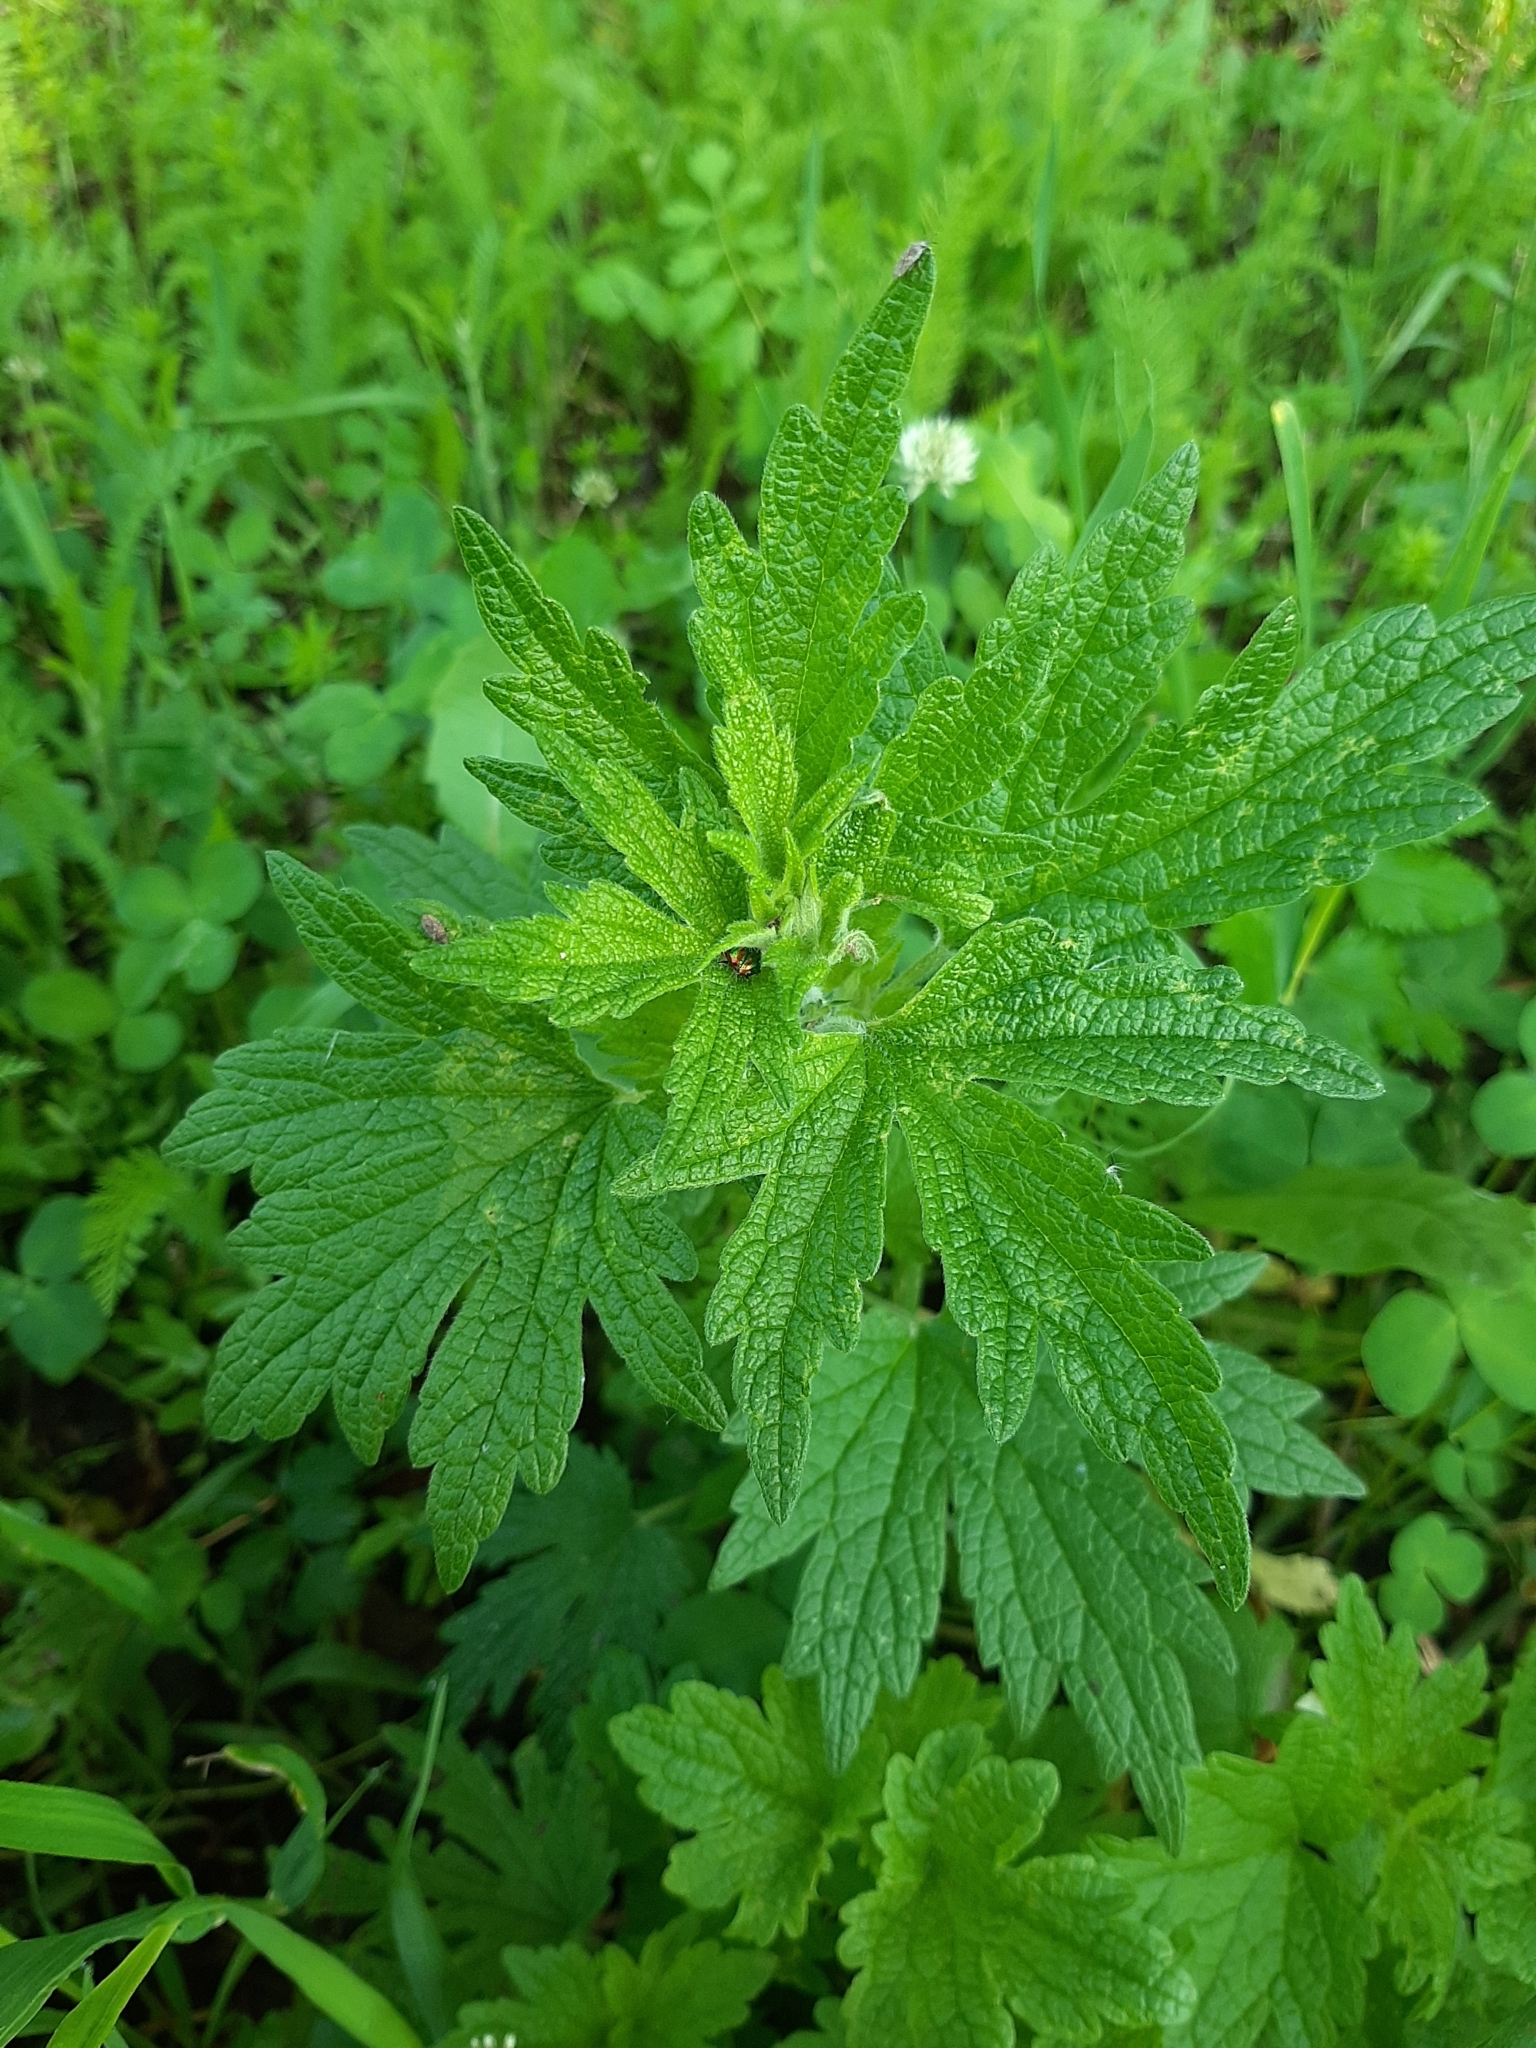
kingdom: Plantae
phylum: Tracheophyta
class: Magnoliopsida
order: Lamiales
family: Lamiaceae
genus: Leonurus
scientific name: Leonurus quinquelobatus
